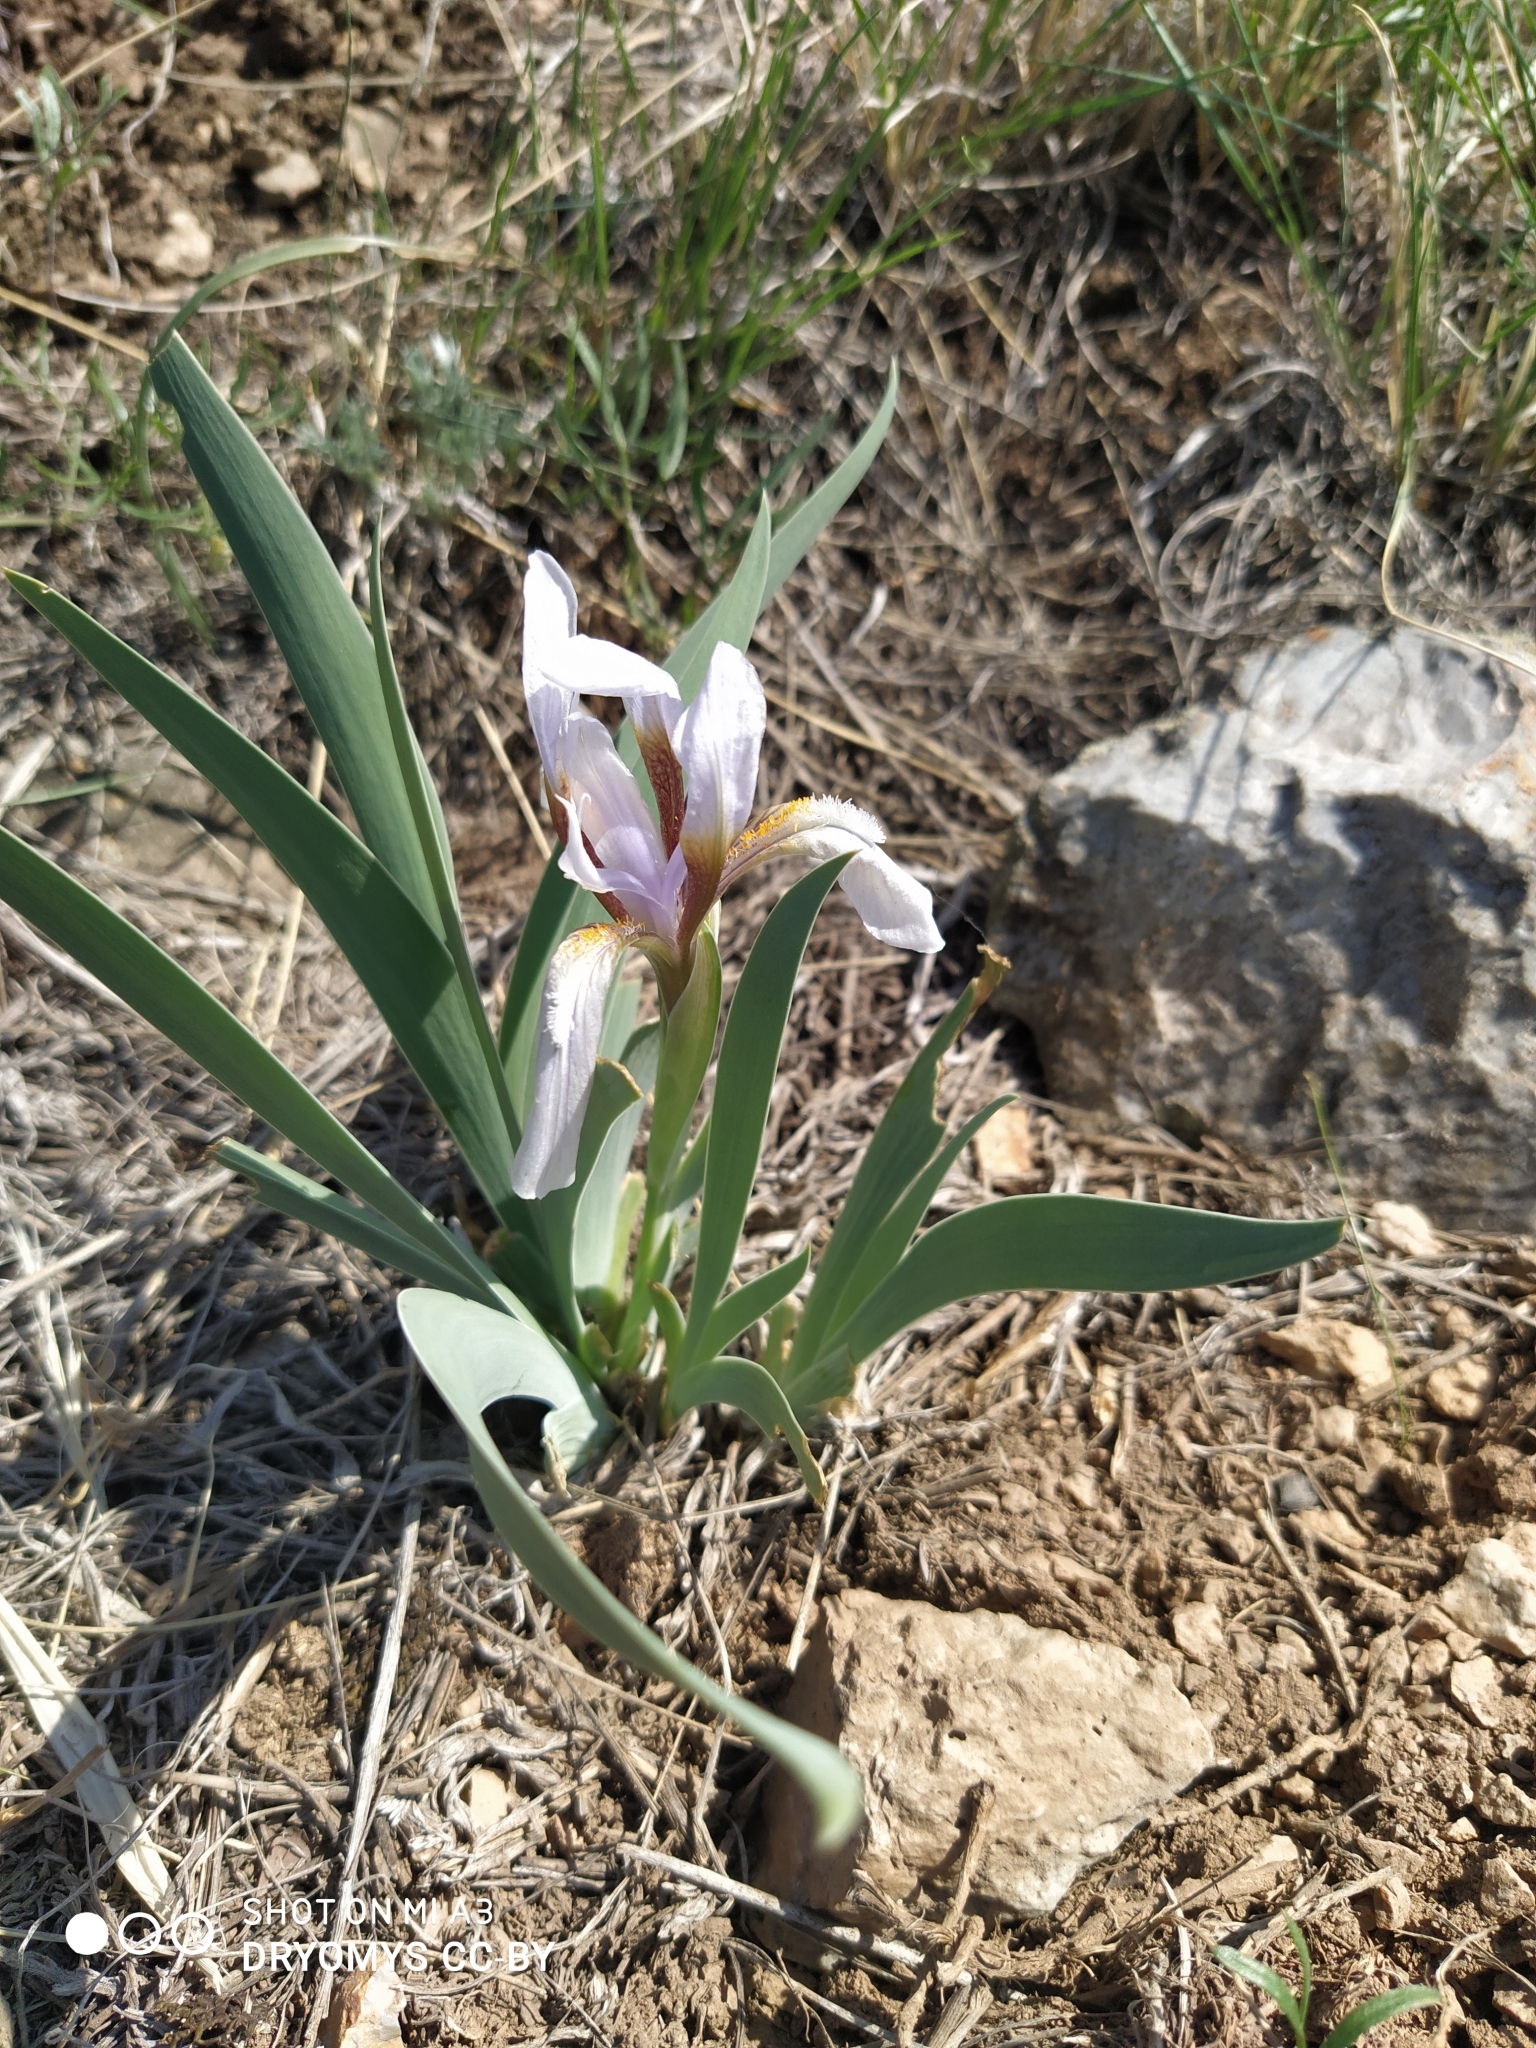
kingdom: Plantae
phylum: Tracheophyta
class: Liliopsida
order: Asparagales
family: Iridaceae
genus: Iris
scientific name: Iris glaucescens
